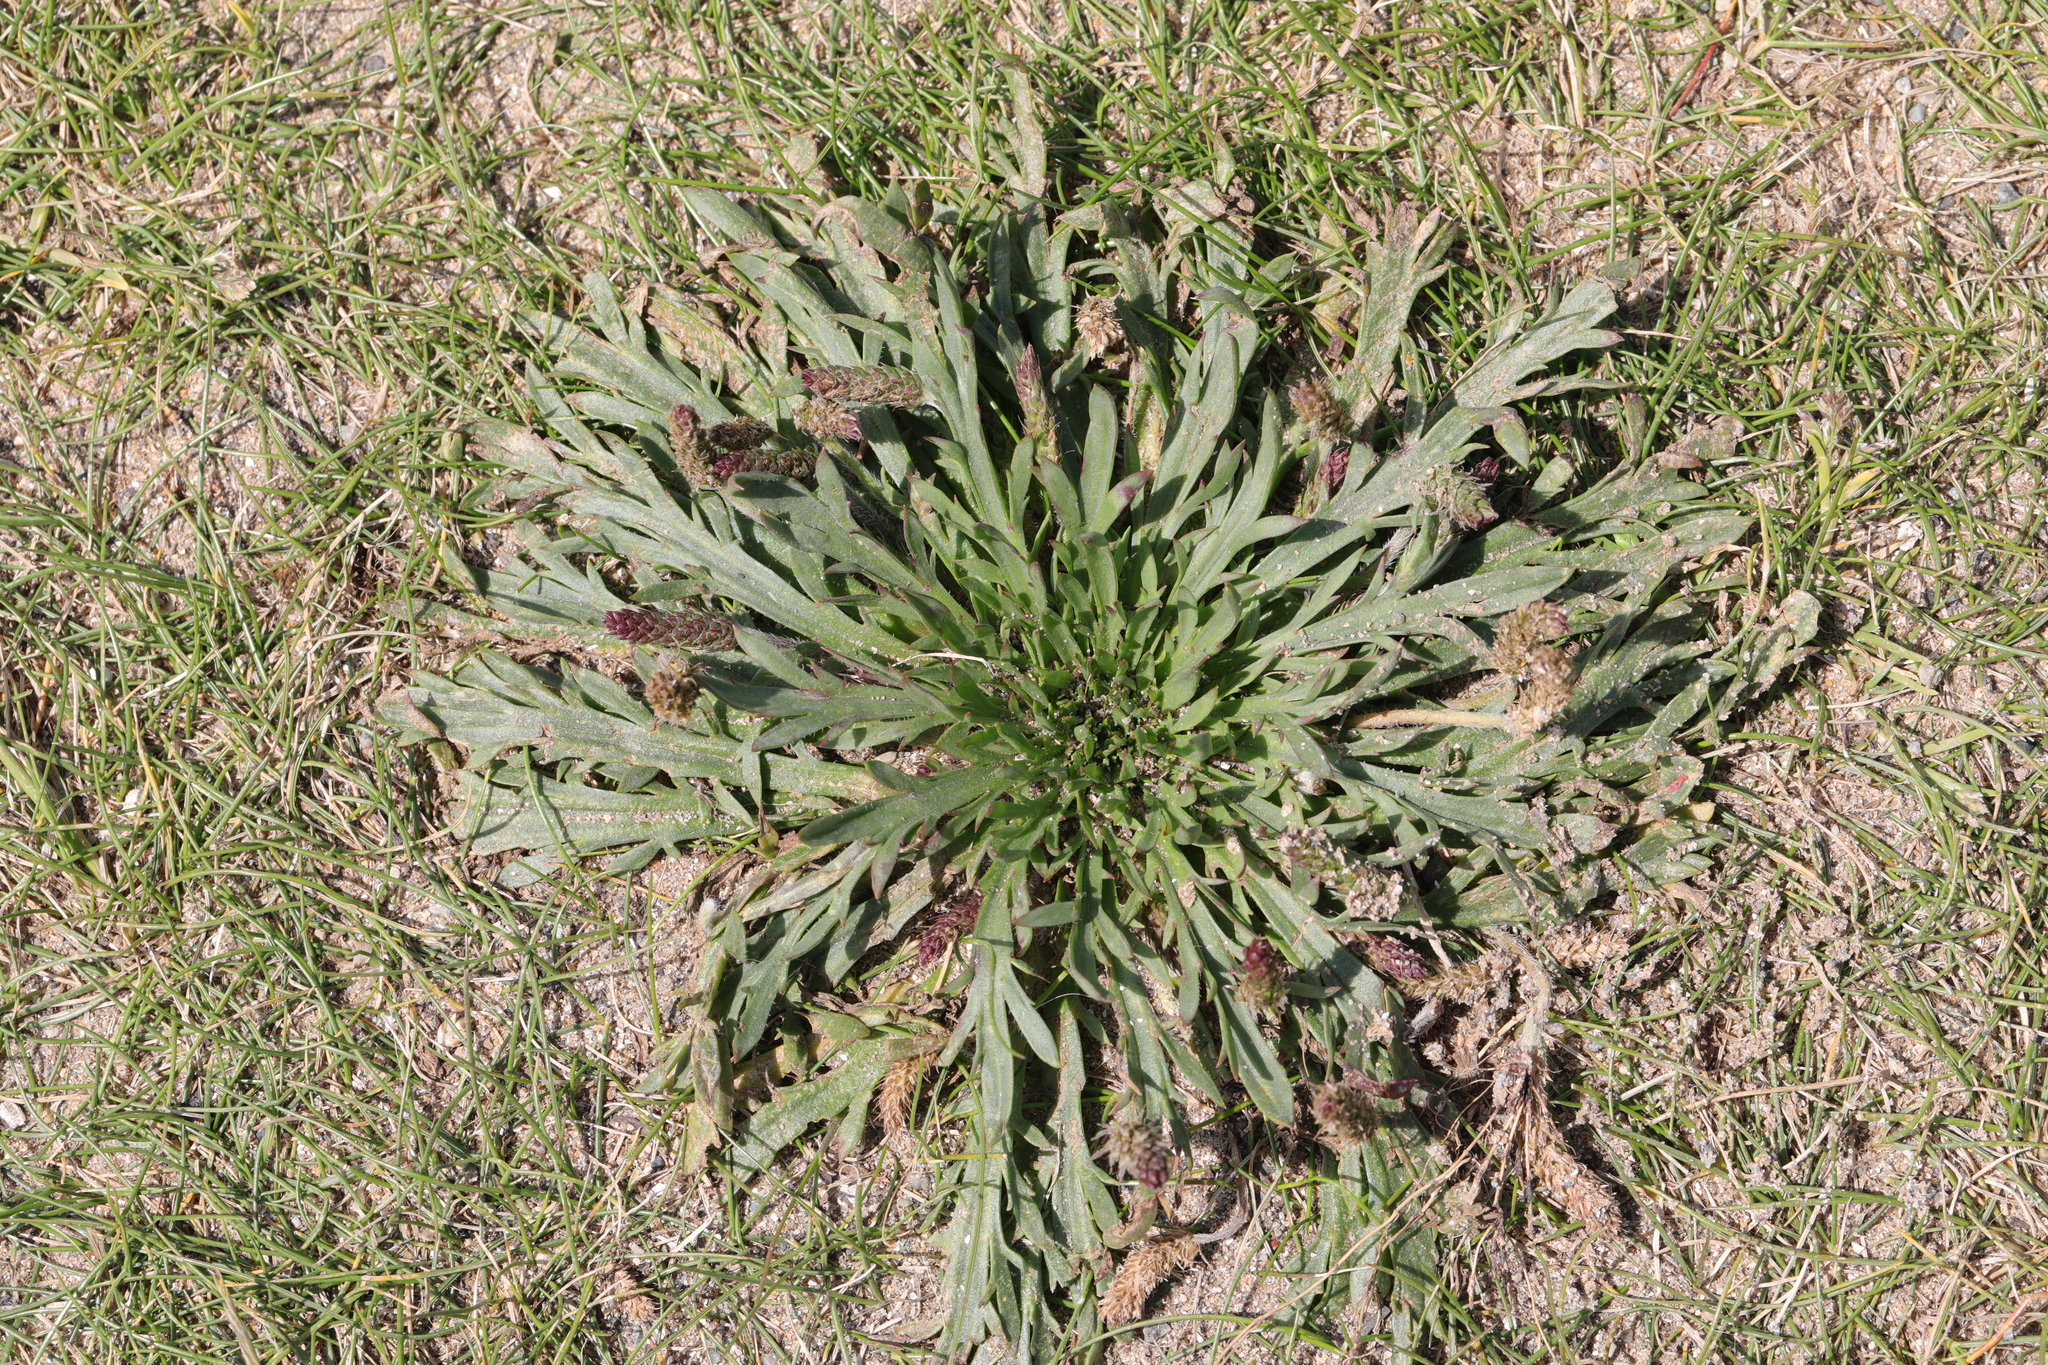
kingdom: Plantae
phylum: Tracheophyta
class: Magnoliopsida
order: Lamiales
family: Plantaginaceae
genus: Plantago
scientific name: Plantago coronopus
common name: Buck's-horn plantain
